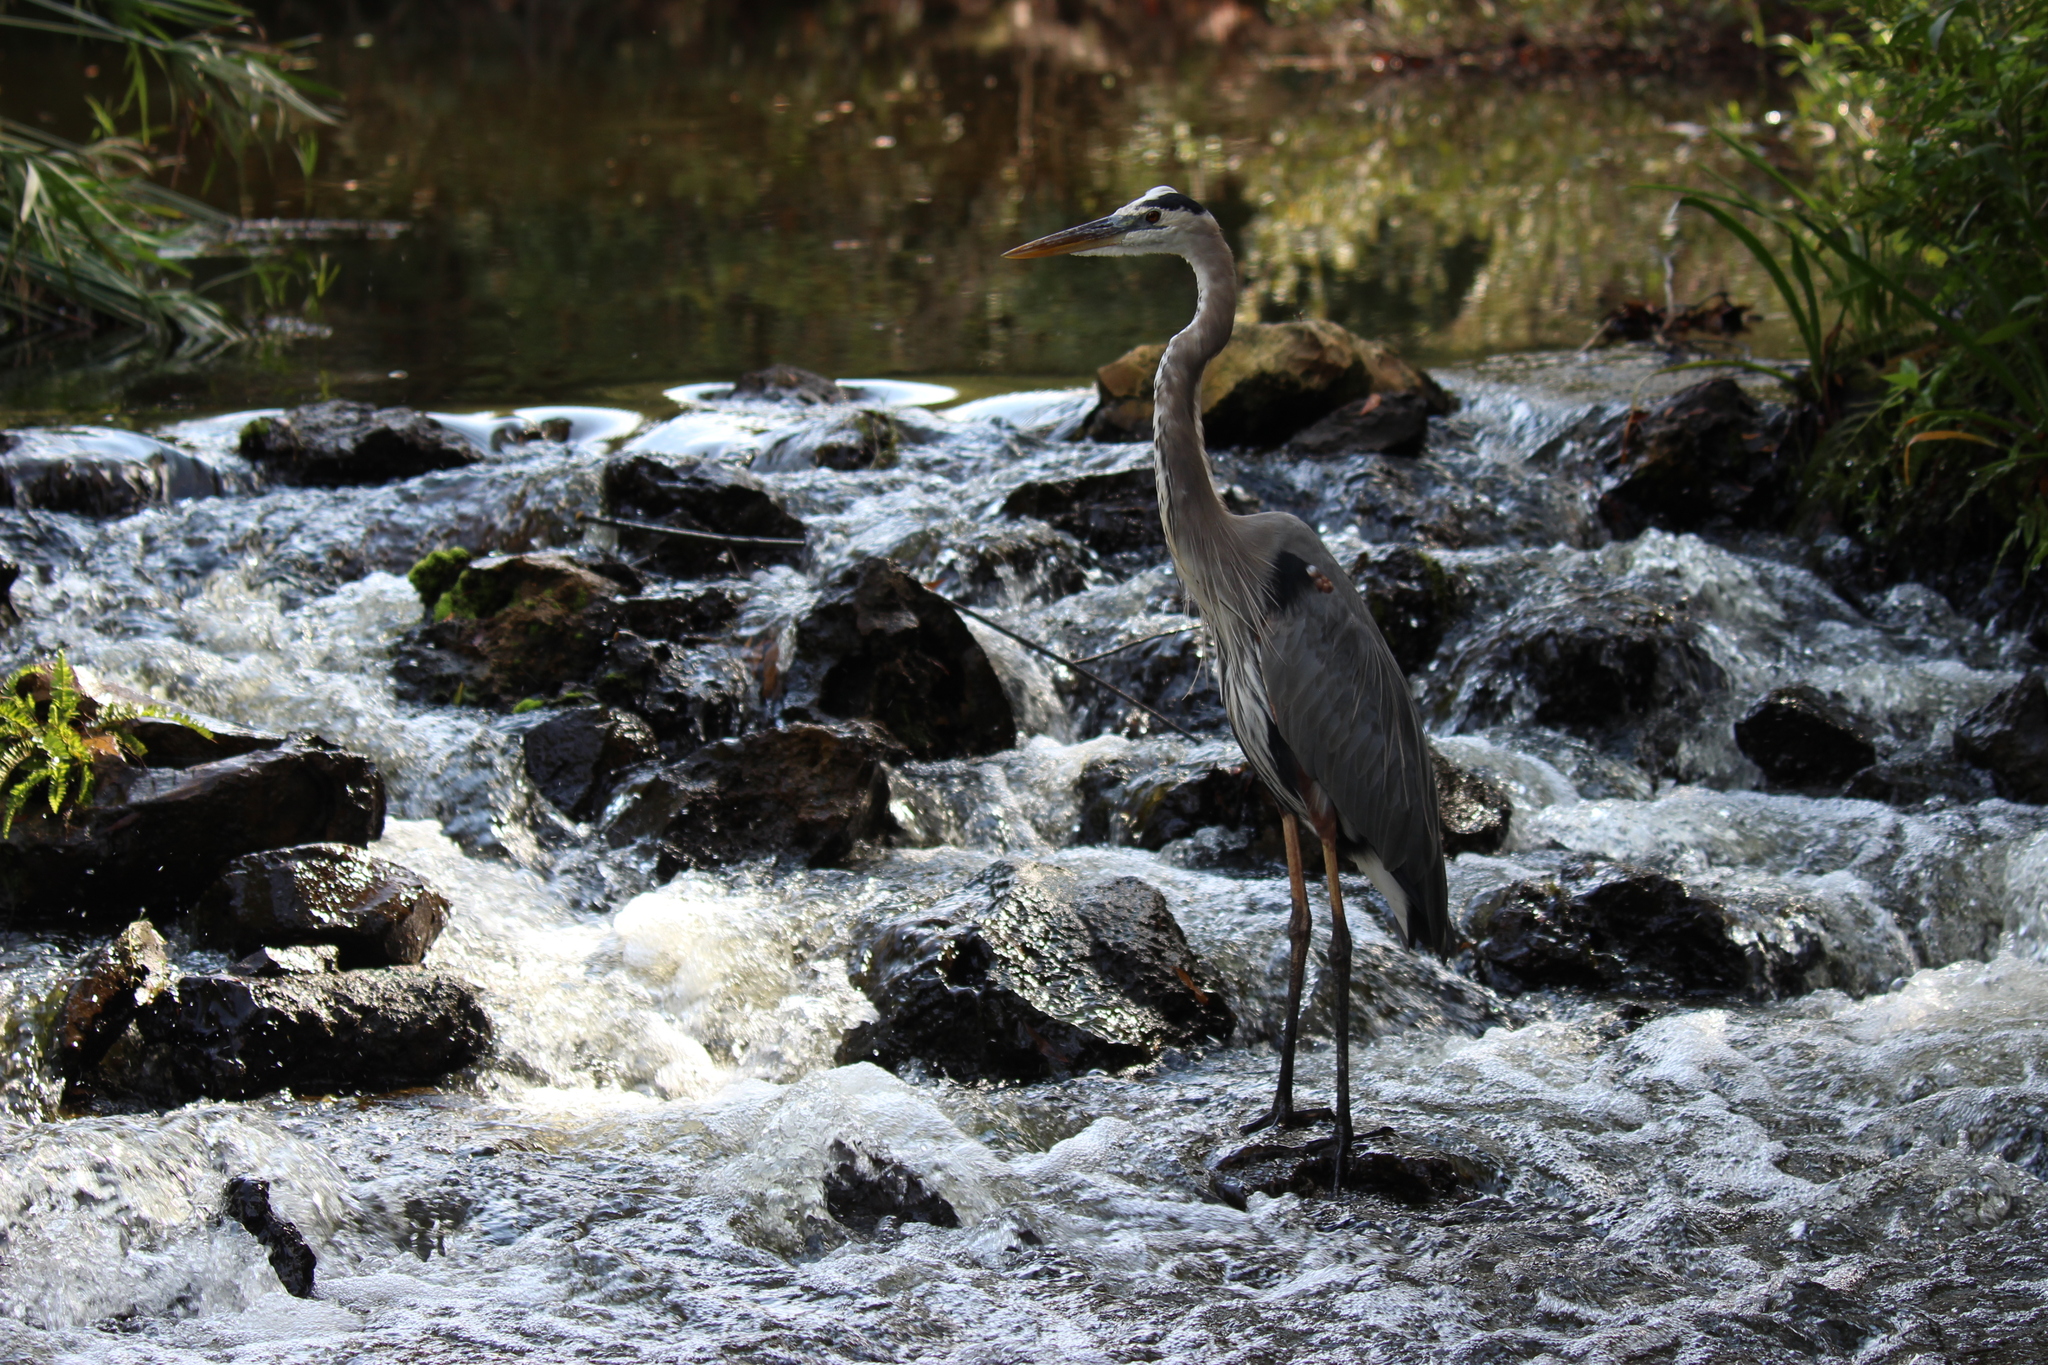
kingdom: Animalia
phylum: Chordata
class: Aves
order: Pelecaniformes
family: Ardeidae
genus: Ardea
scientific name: Ardea herodias
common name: Great blue heron
